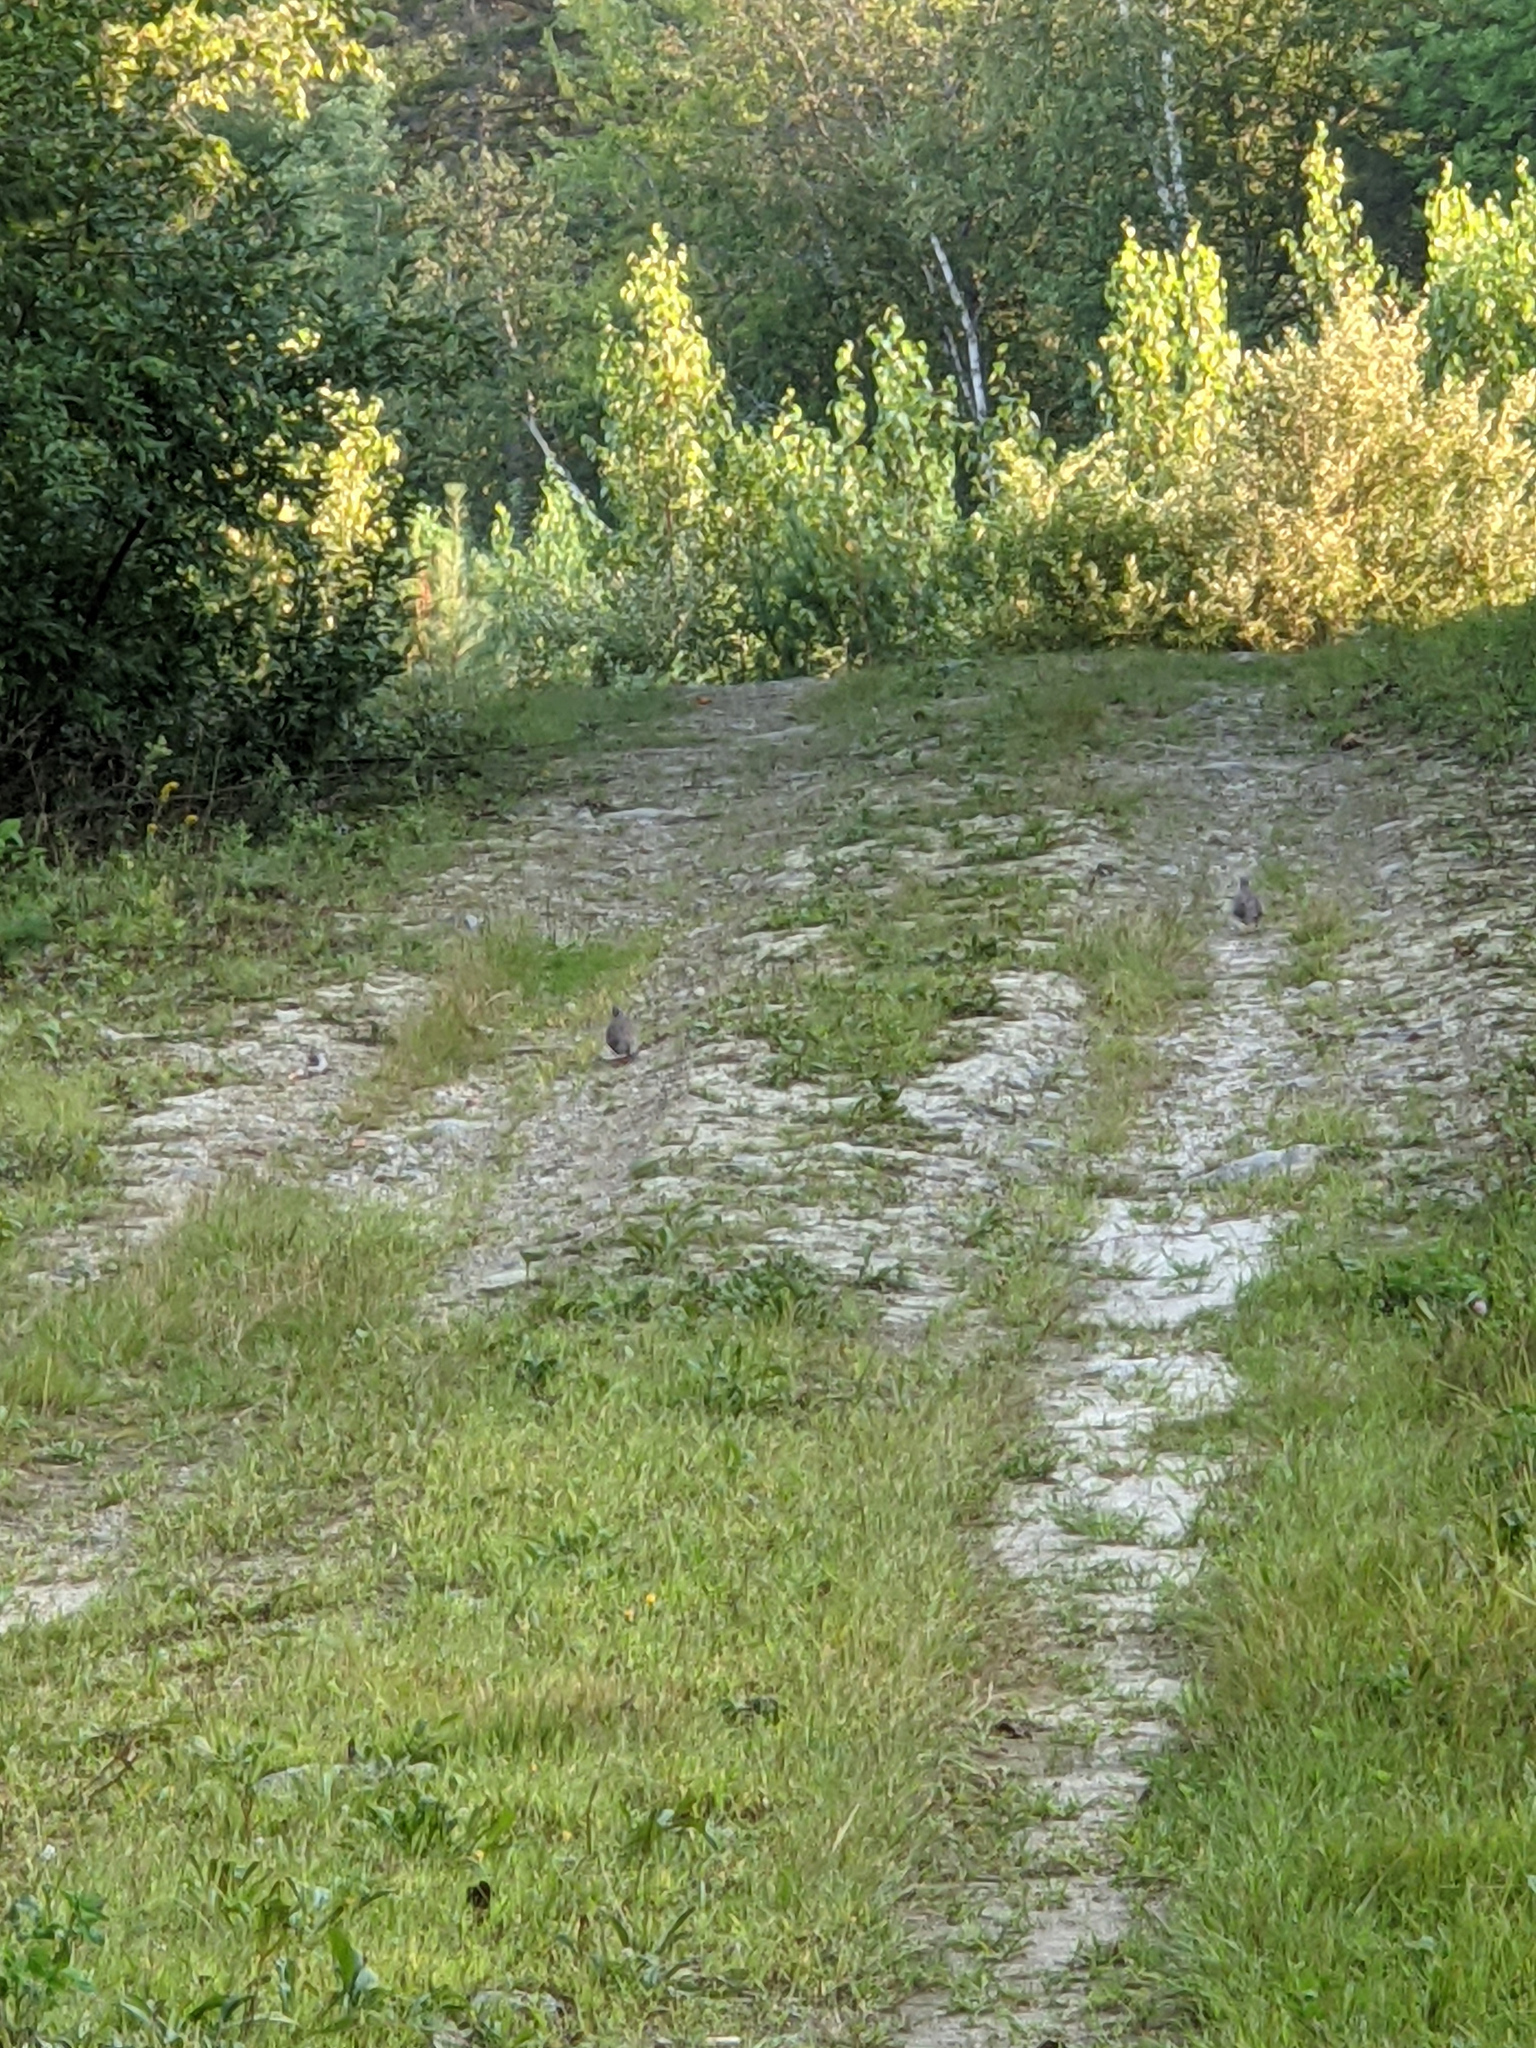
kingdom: Animalia
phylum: Chordata
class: Aves
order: Columbiformes
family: Columbidae
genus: Zenaida
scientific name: Zenaida macroura
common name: Mourning dove
